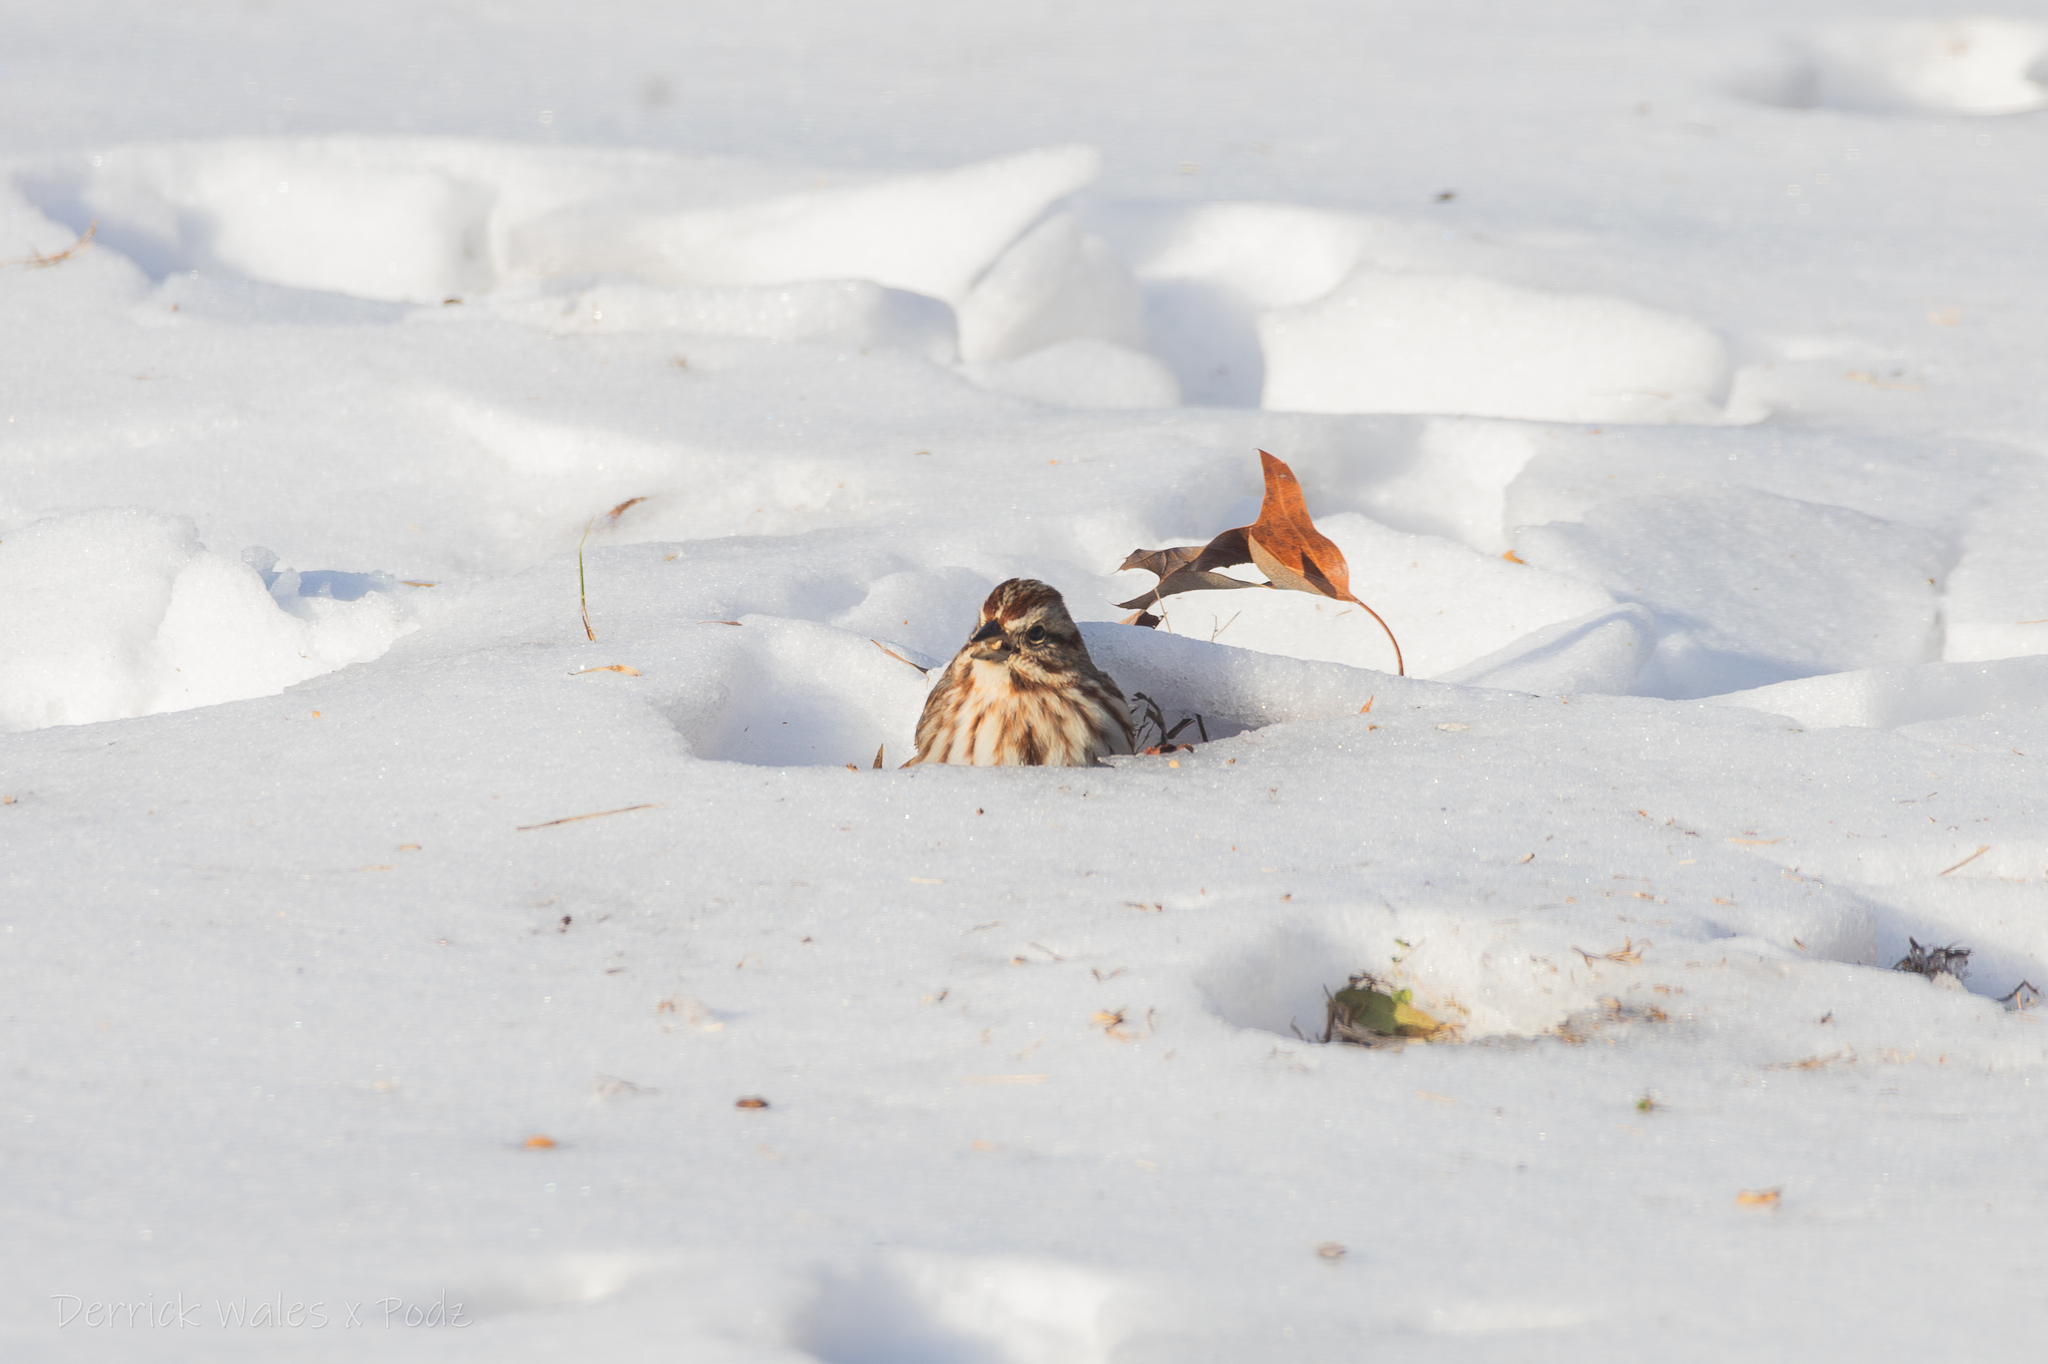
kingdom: Animalia
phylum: Chordata
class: Aves
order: Passeriformes
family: Passerellidae
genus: Melospiza
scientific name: Melospiza melodia
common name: Song sparrow
